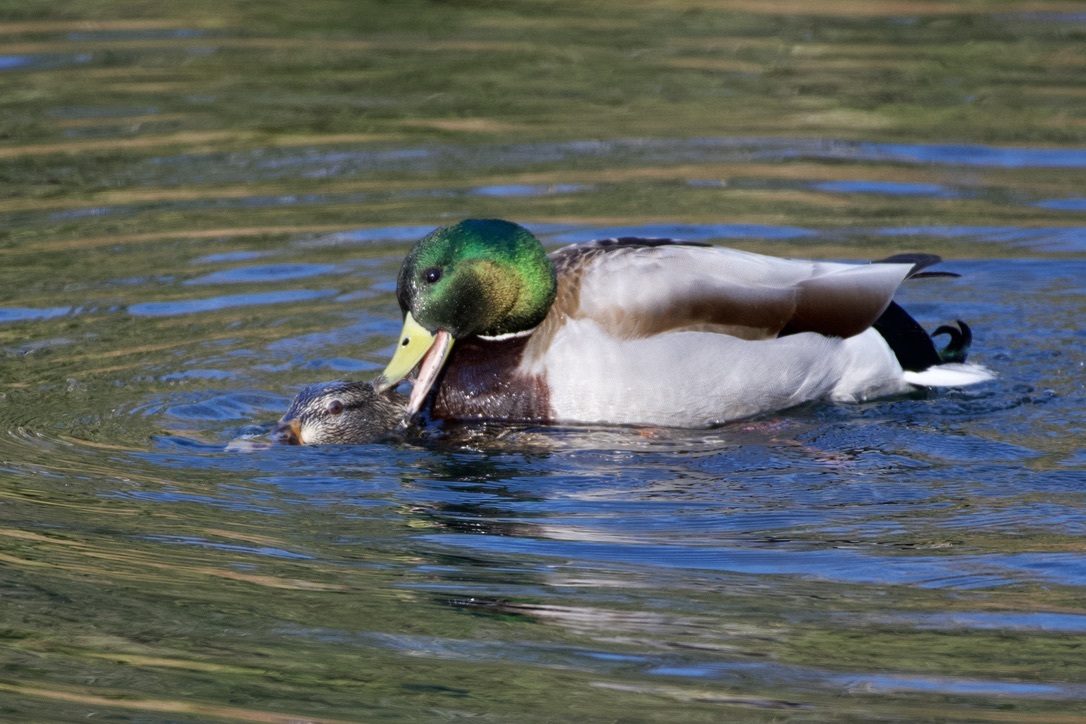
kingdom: Animalia
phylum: Chordata
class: Aves
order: Anseriformes
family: Anatidae
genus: Anas
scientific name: Anas platyrhynchos
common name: Mallard
